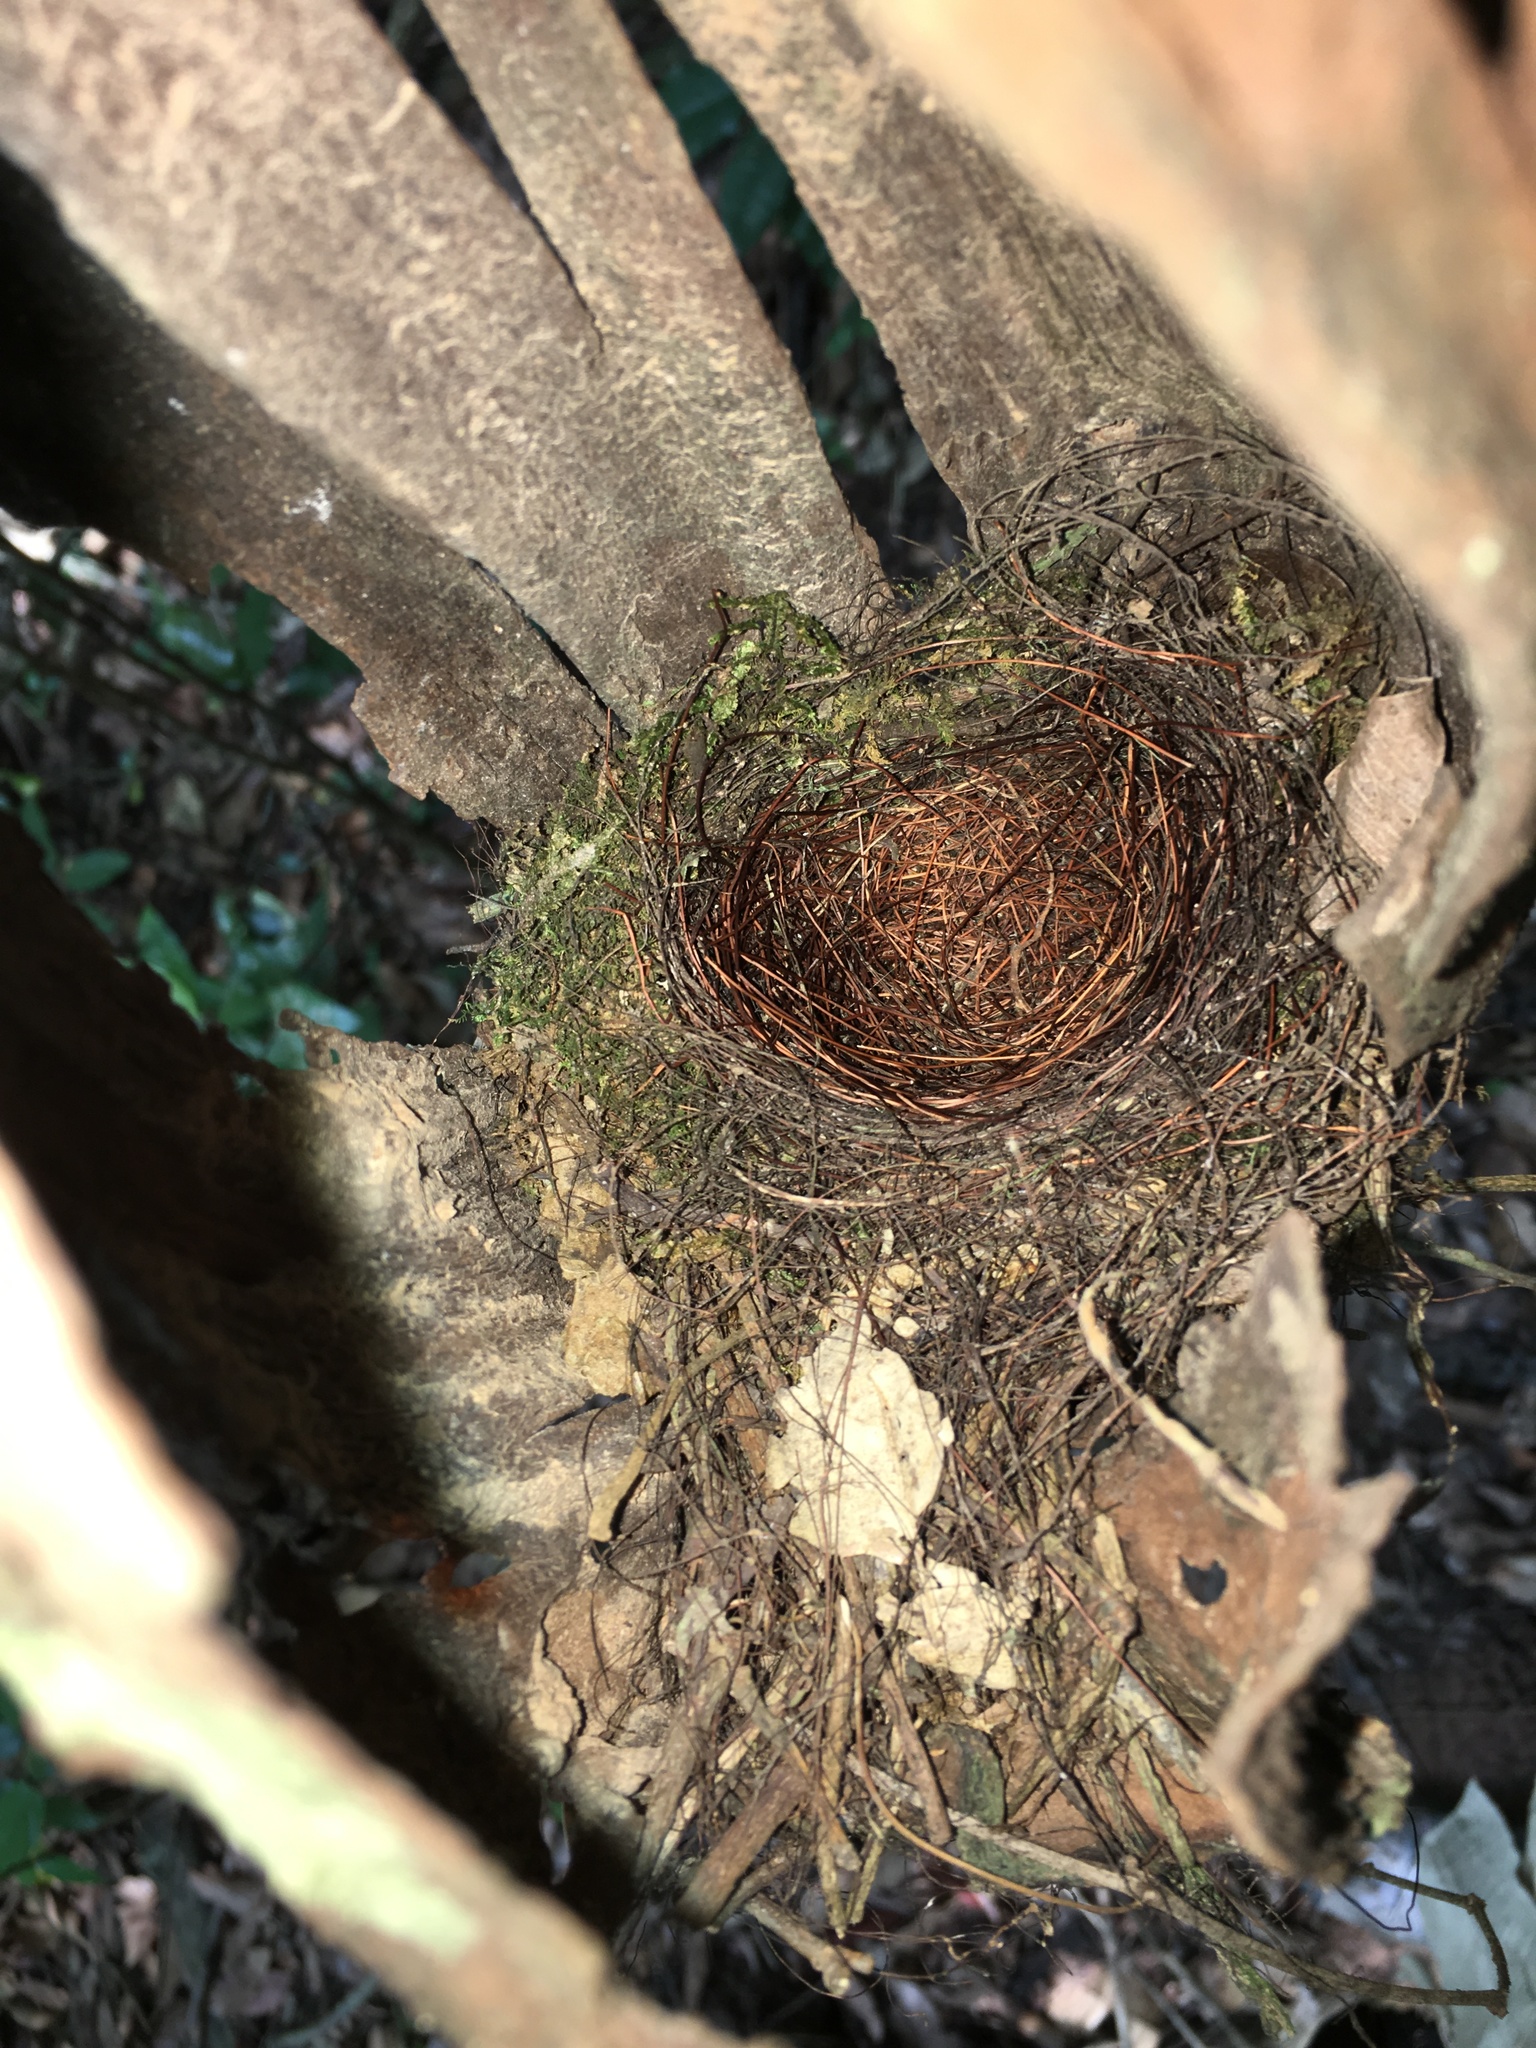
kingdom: Animalia
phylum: Chordata
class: Aves
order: Passeriformes
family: Muscicapidae
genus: Cyornis
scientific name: Cyornis tickelliae
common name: Tickell's blue flycatcher
